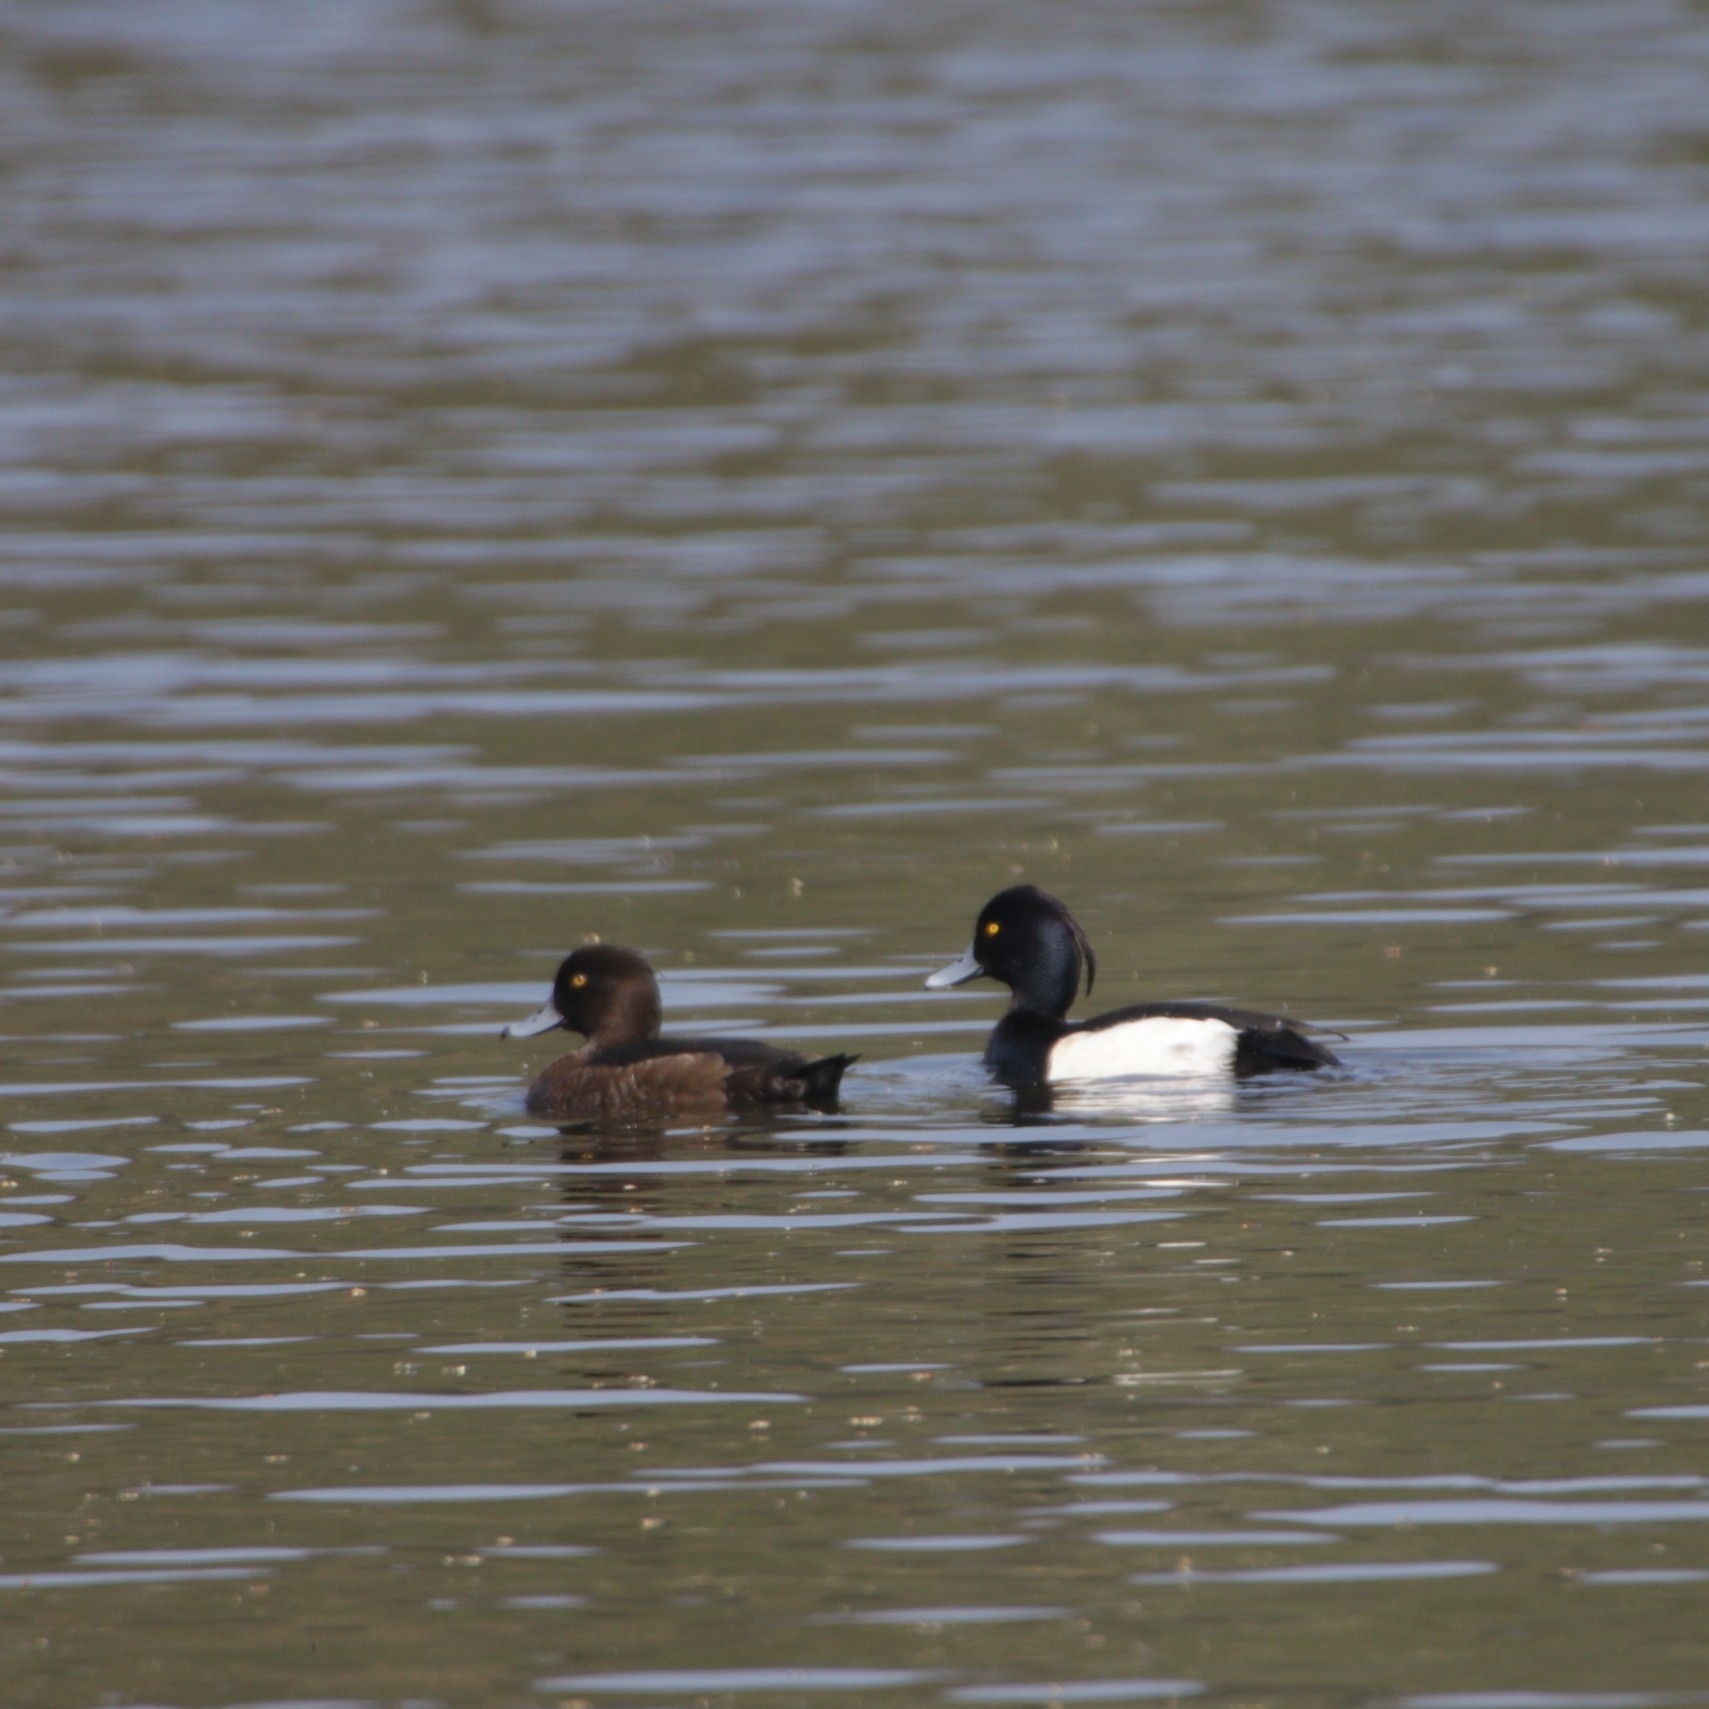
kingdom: Animalia
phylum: Chordata
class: Aves
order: Anseriformes
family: Anatidae
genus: Aythya
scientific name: Aythya fuligula
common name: Tufted duck
